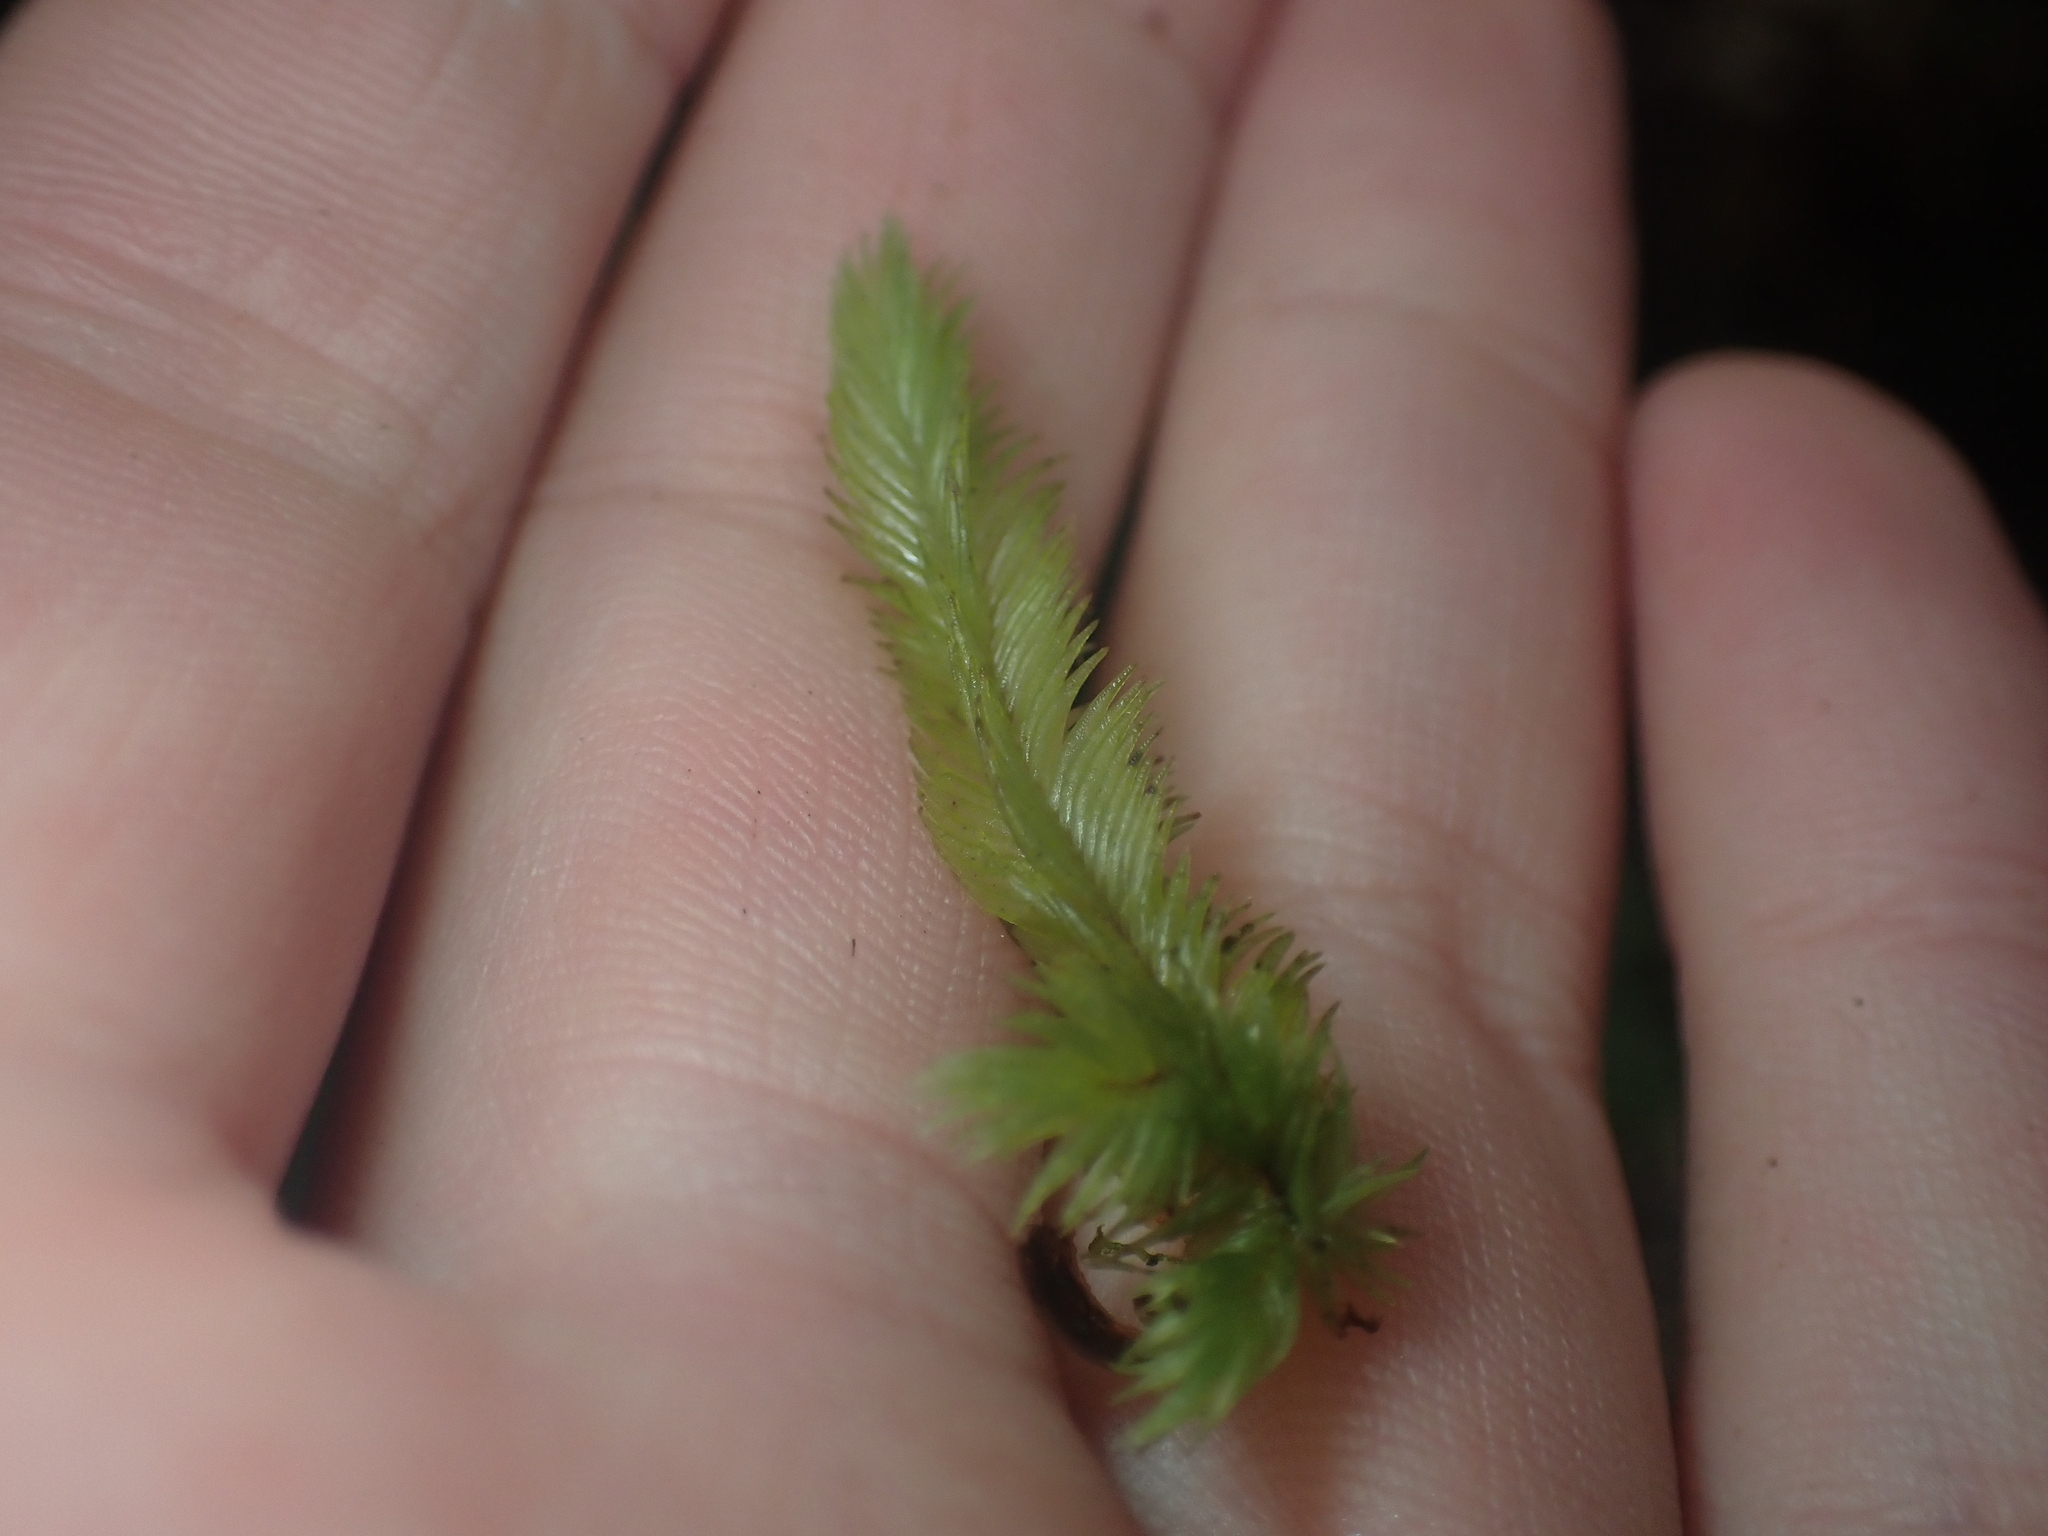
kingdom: Plantae
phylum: Bryophyta
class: Bryopsida
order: Dicranales
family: Leucobryaceae
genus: Leucobryum
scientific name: Leucobryum javense
